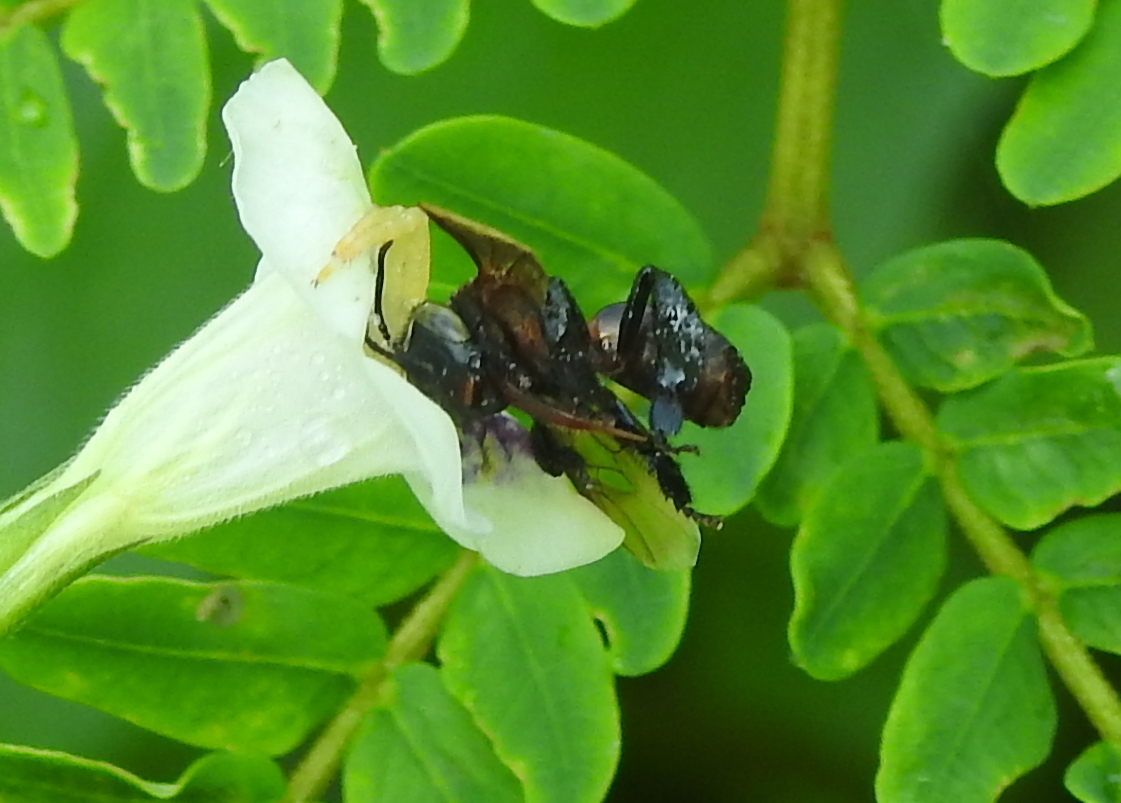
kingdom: Animalia
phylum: Arthropoda
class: Insecta
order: Hymenoptera
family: Apidae
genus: Geniotrigona
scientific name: Geniotrigona thoracica
